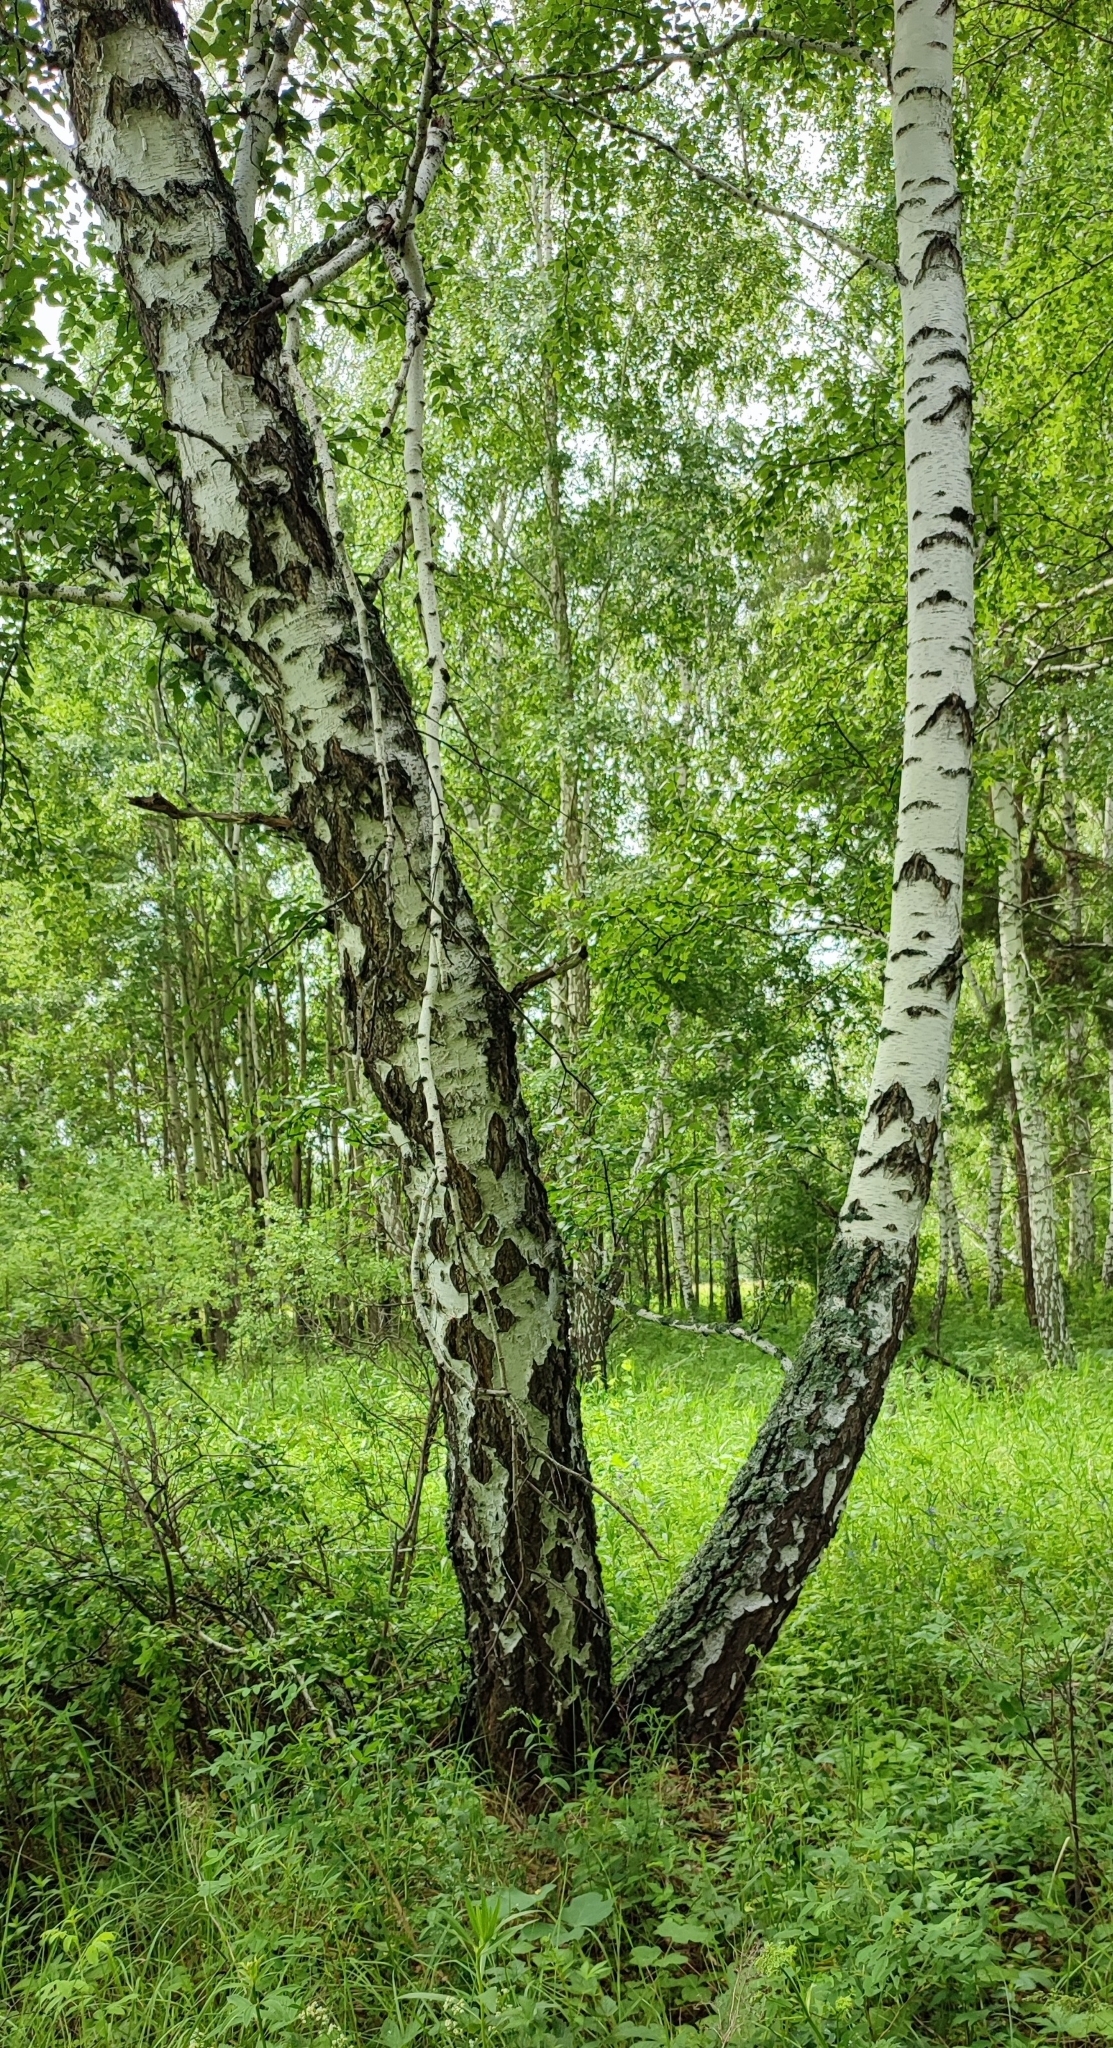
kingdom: Plantae
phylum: Tracheophyta
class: Magnoliopsida
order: Fagales
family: Betulaceae
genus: Betula
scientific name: Betula pendula
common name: Silver birch
